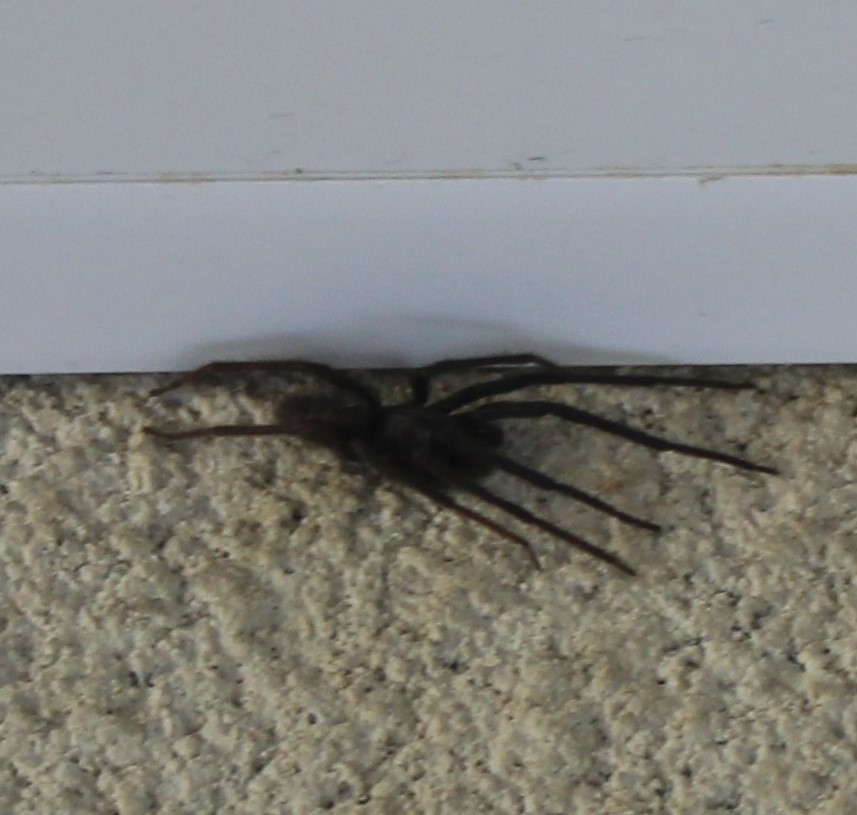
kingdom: Animalia
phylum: Arthropoda
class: Arachnida
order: Araneae
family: Segestriidae
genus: Segestria
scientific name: Segestria florentina
